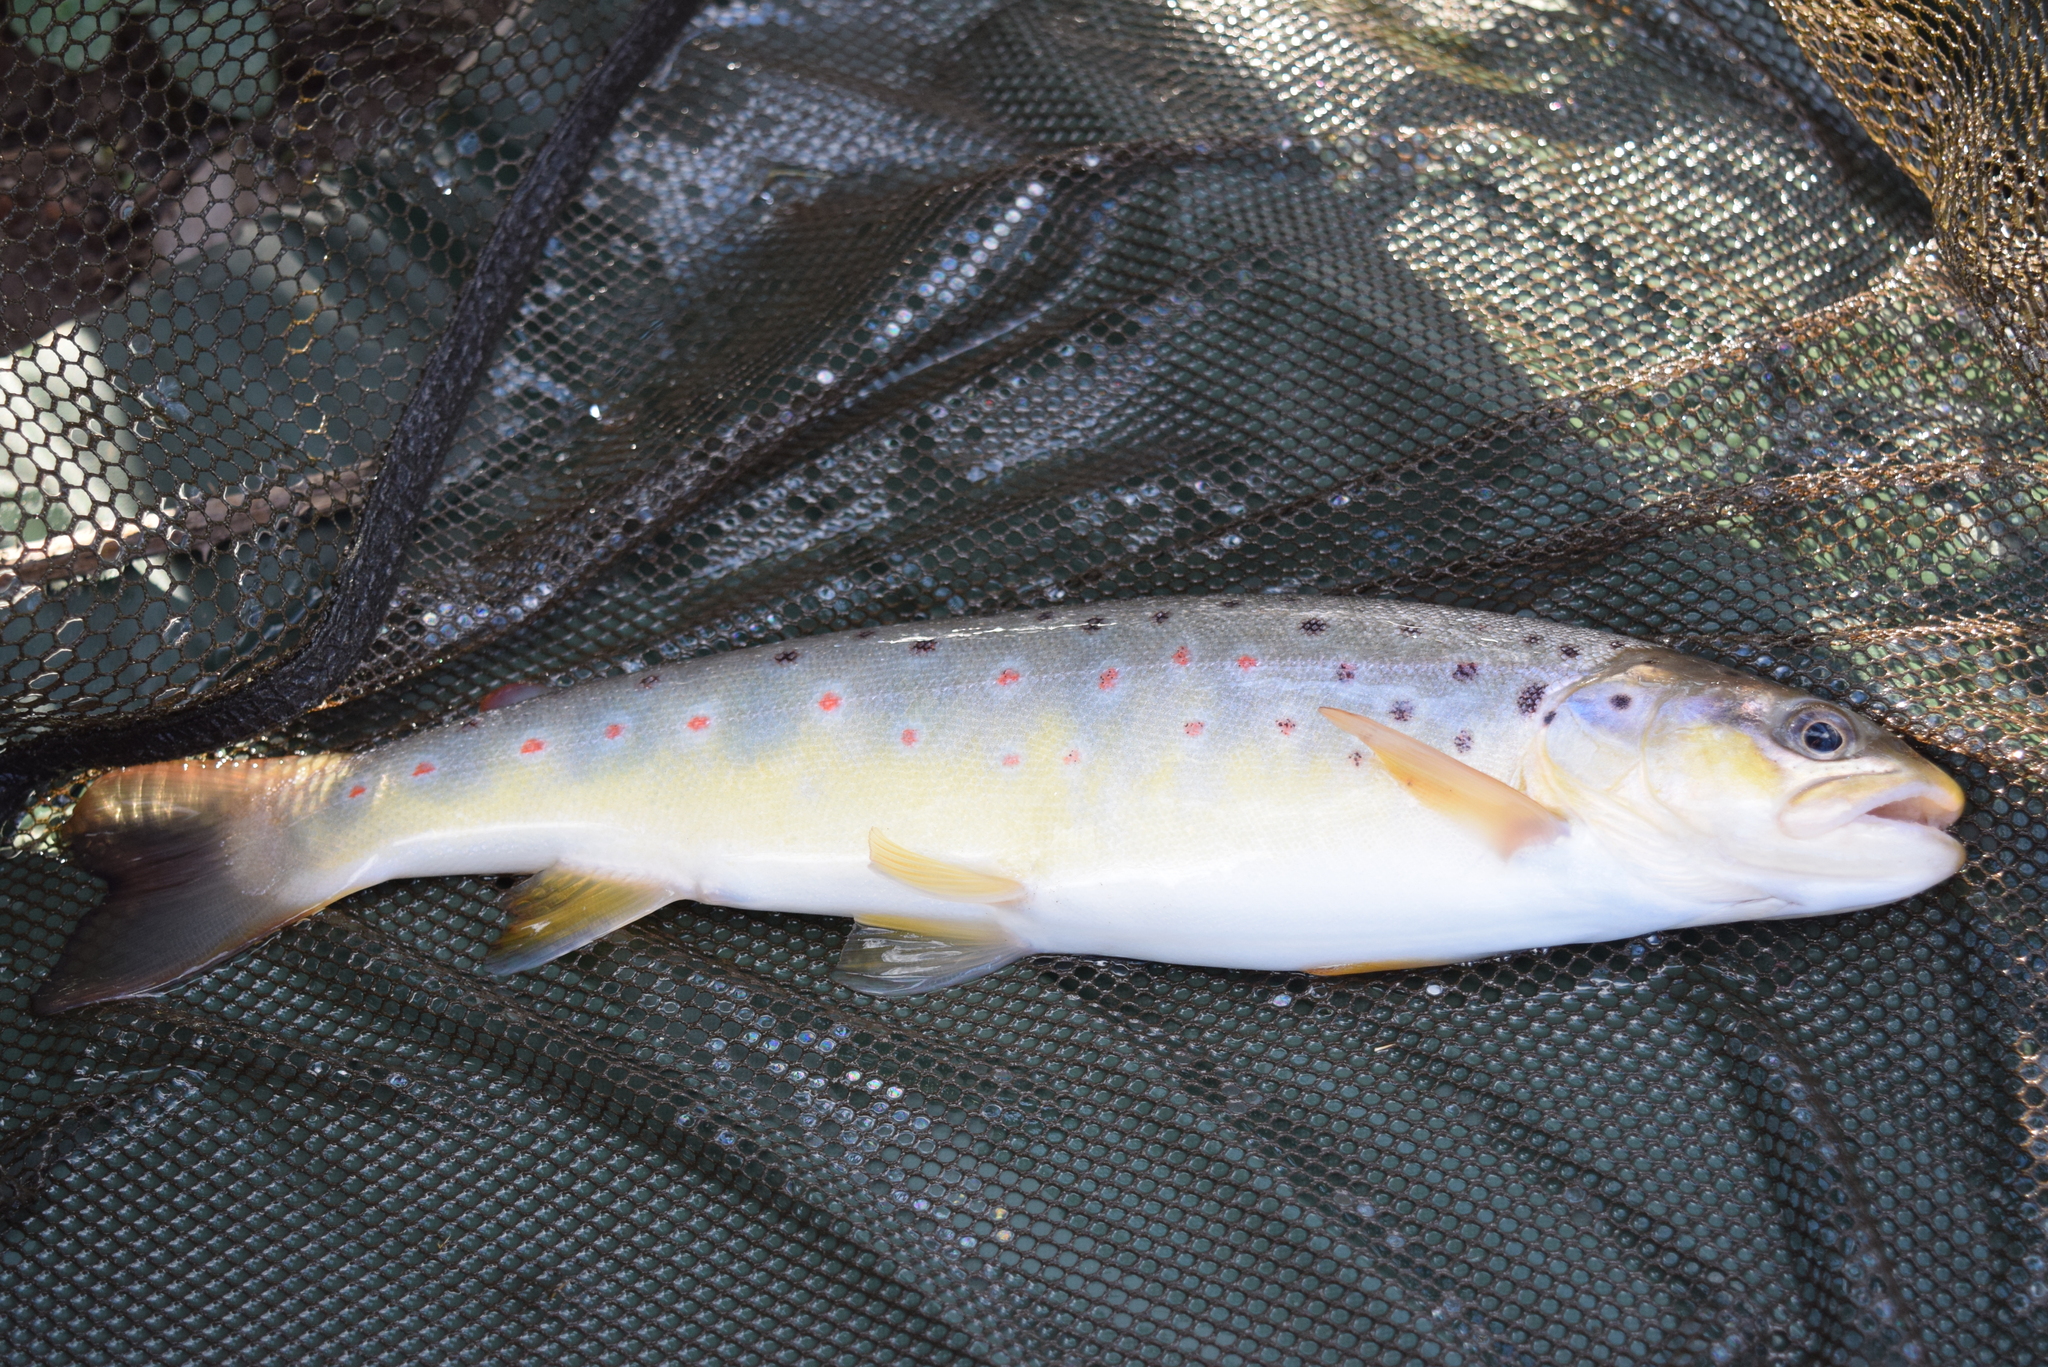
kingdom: Animalia
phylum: Chordata
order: Salmoniformes
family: Salmonidae
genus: Salmo
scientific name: Salmo trutta
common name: Brown trout
